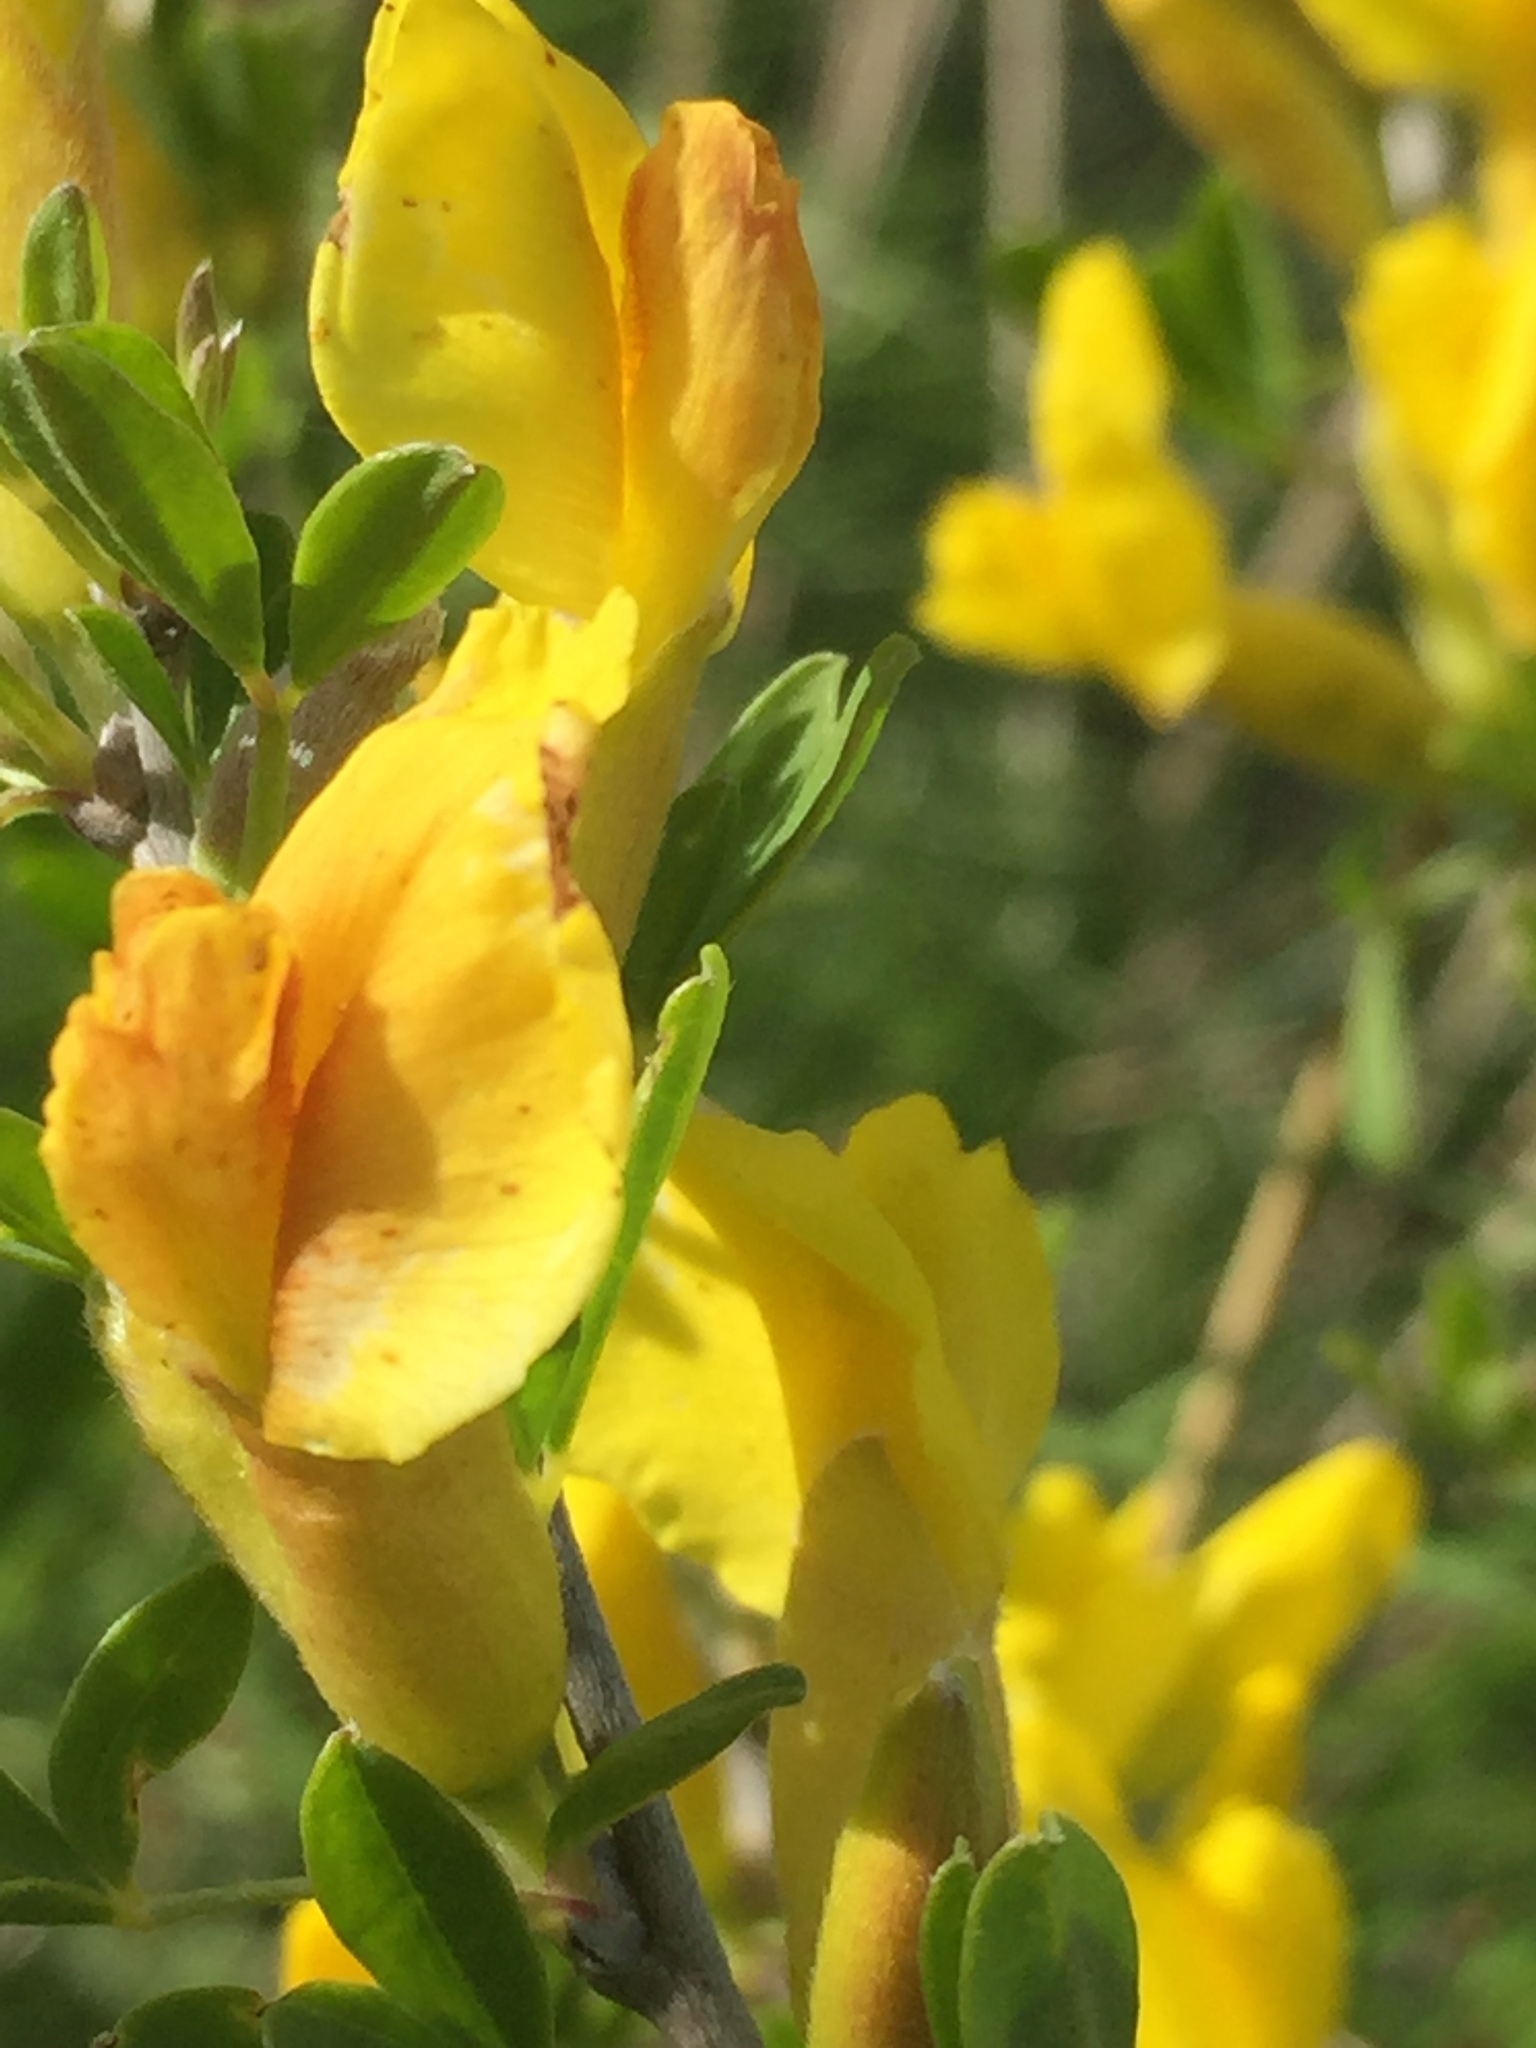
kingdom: Plantae
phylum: Tracheophyta
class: Magnoliopsida
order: Fabales
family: Fabaceae
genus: Chamaecytisus
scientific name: Chamaecytisus ruthenicus
